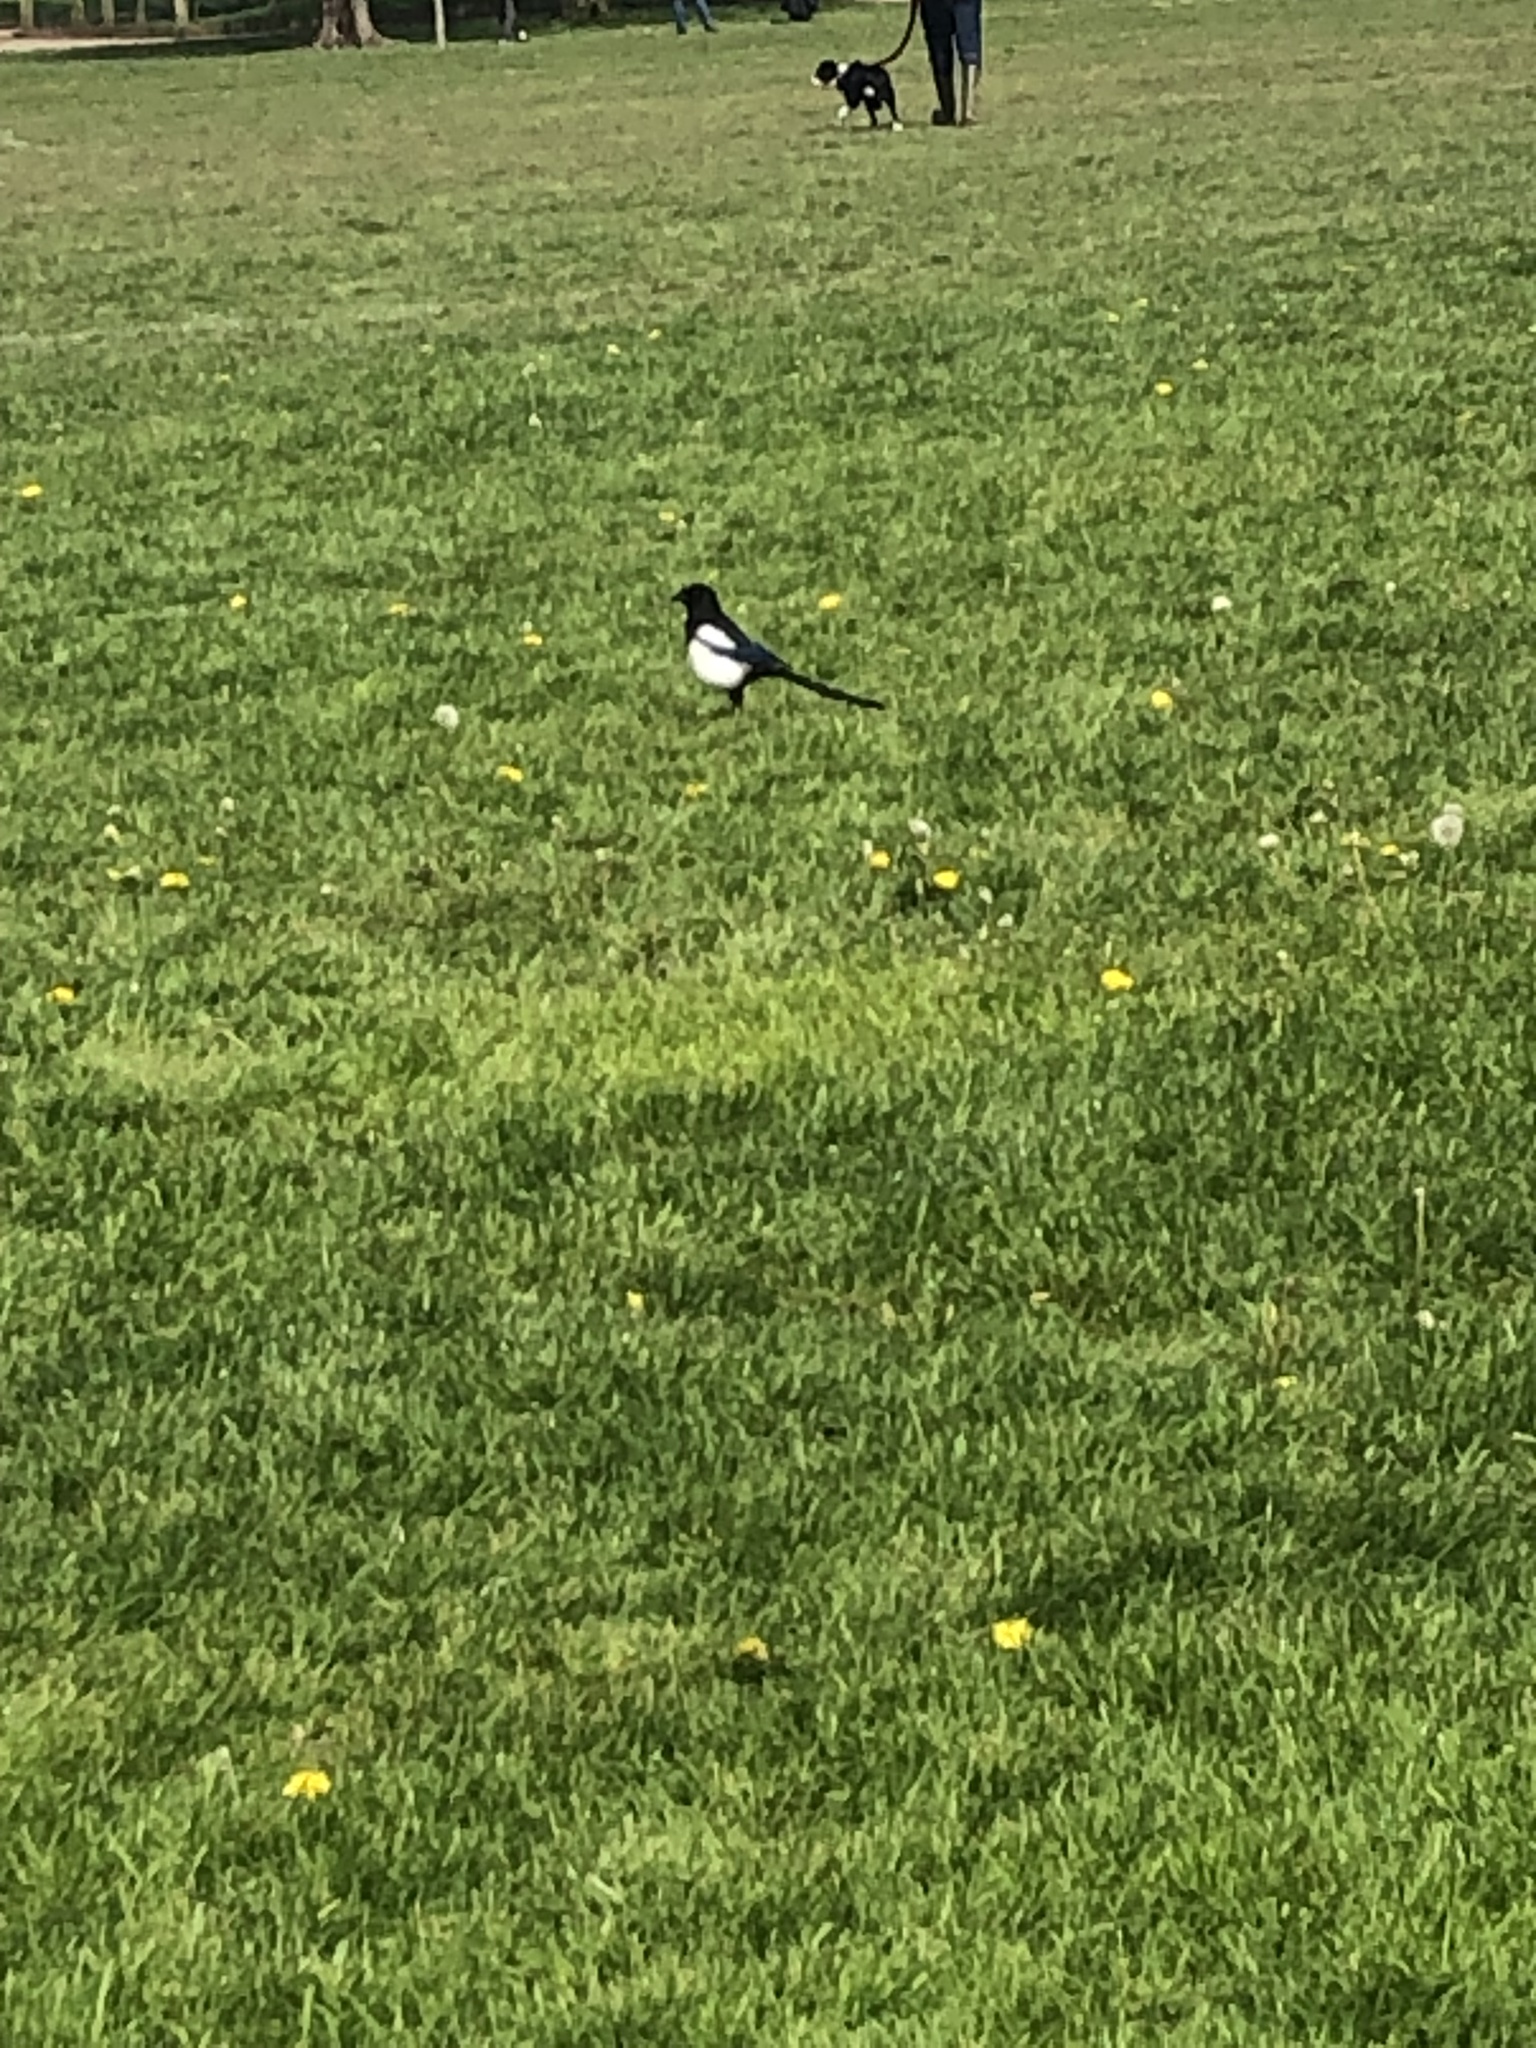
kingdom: Animalia
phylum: Chordata
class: Aves
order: Passeriformes
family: Corvidae
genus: Pica
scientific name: Pica pica
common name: Eurasian magpie
